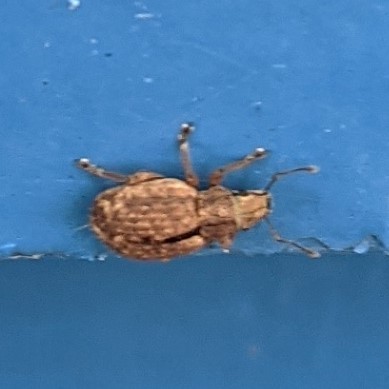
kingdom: Animalia
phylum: Arthropoda
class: Insecta
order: Coleoptera
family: Curculionidae
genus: Strophosoma
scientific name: Strophosoma melanogrammum
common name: Weevil
